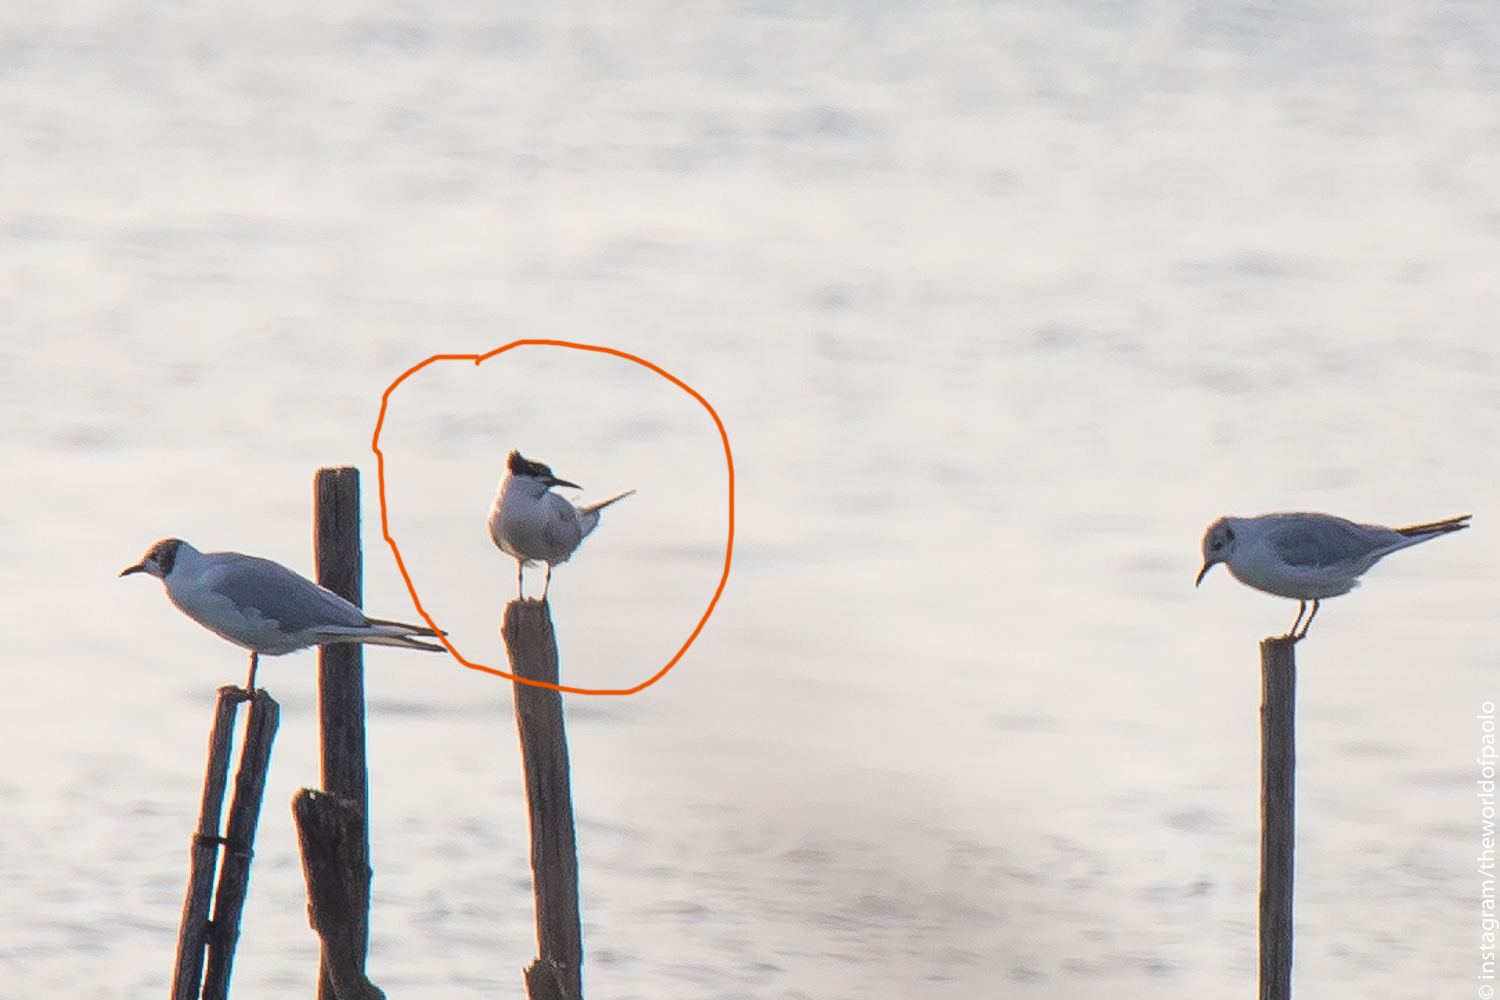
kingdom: Animalia
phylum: Chordata
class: Aves
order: Charadriiformes
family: Laridae
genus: Thalasseus
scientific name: Thalasseus sandvicensis
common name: Sandwich tern
